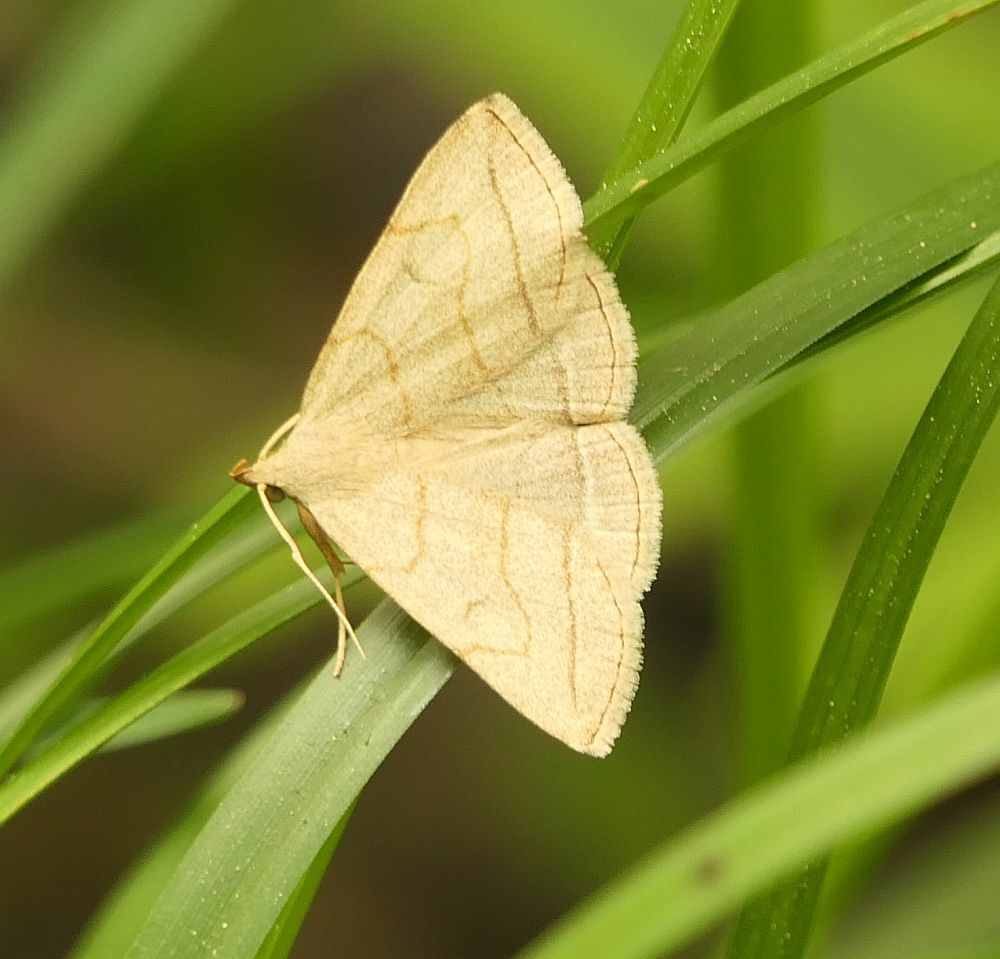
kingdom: Animalia
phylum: Arthropoda
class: Insecta
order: Lepidoptera
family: Erebidae
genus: Zanclognatha
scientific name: Zanclognatha pedipilalis
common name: Grayish fan-foot
